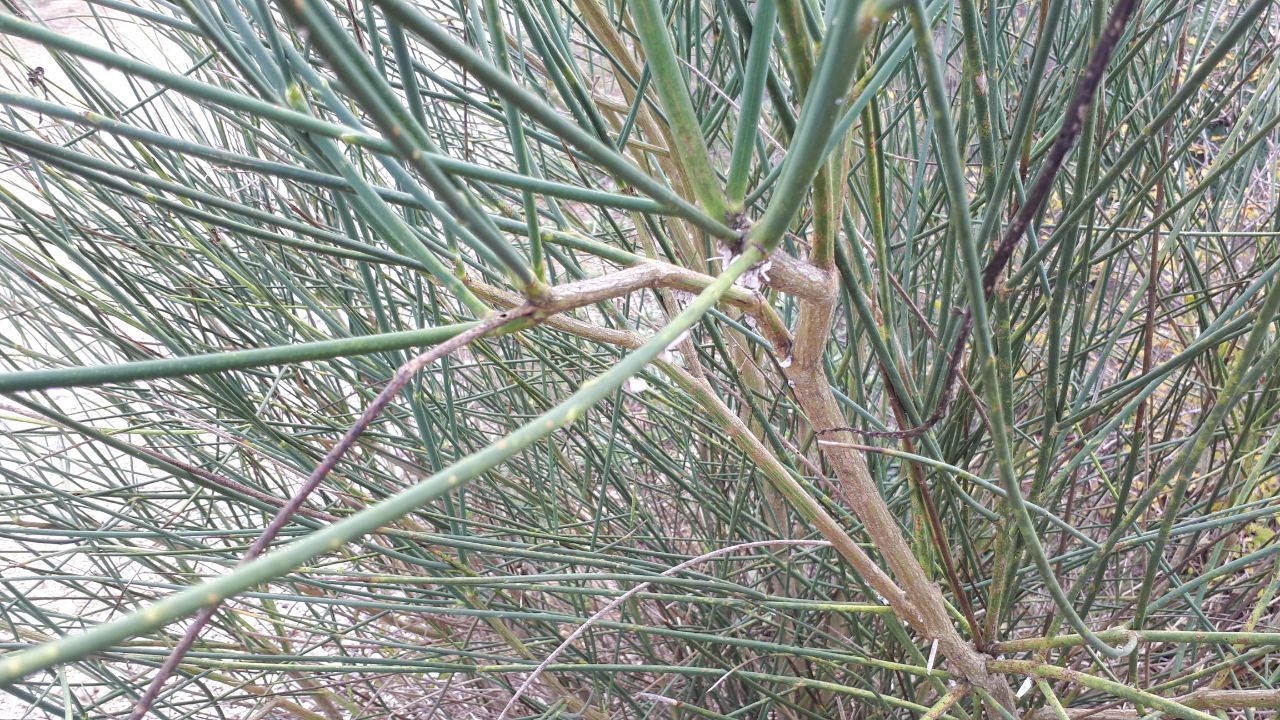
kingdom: Plantae
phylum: Tracheophyta
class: Magnoliopsida
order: Fabales
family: Fabaceae
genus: Spartium
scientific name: Spartium junceum
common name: Spanish broom
